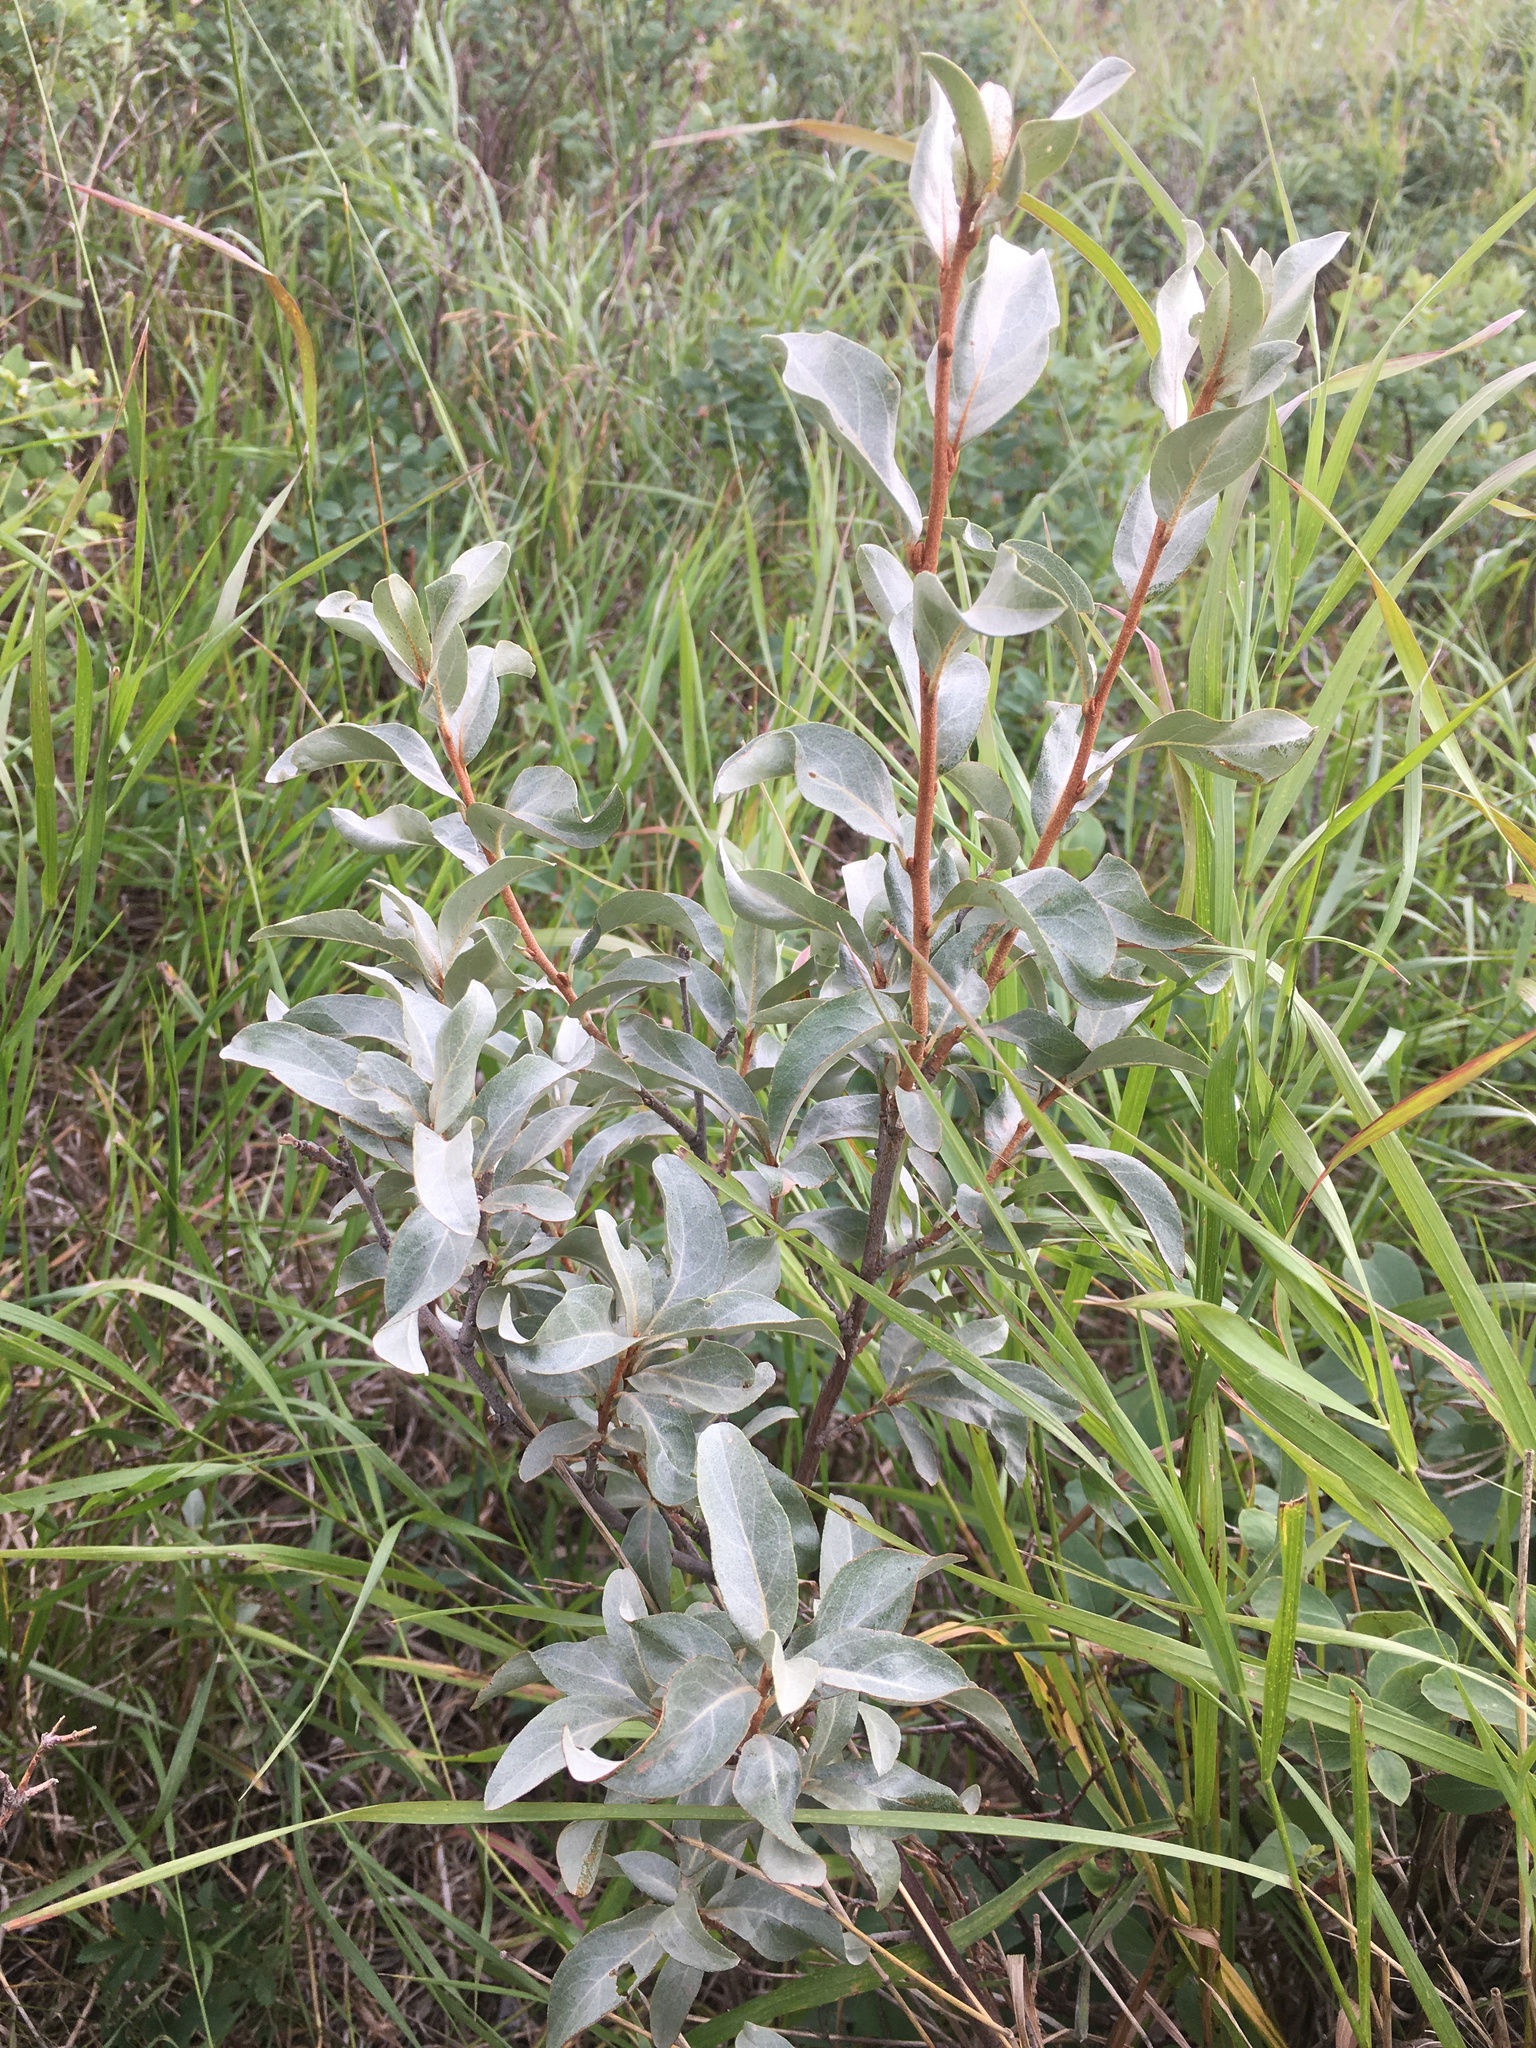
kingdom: Plantae
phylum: Tracheophyta
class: Magnoliopsida
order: Rosales
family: Elaeagnaceae
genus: Elaeagnus
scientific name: Elaeagnus commutata
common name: Silverberry
